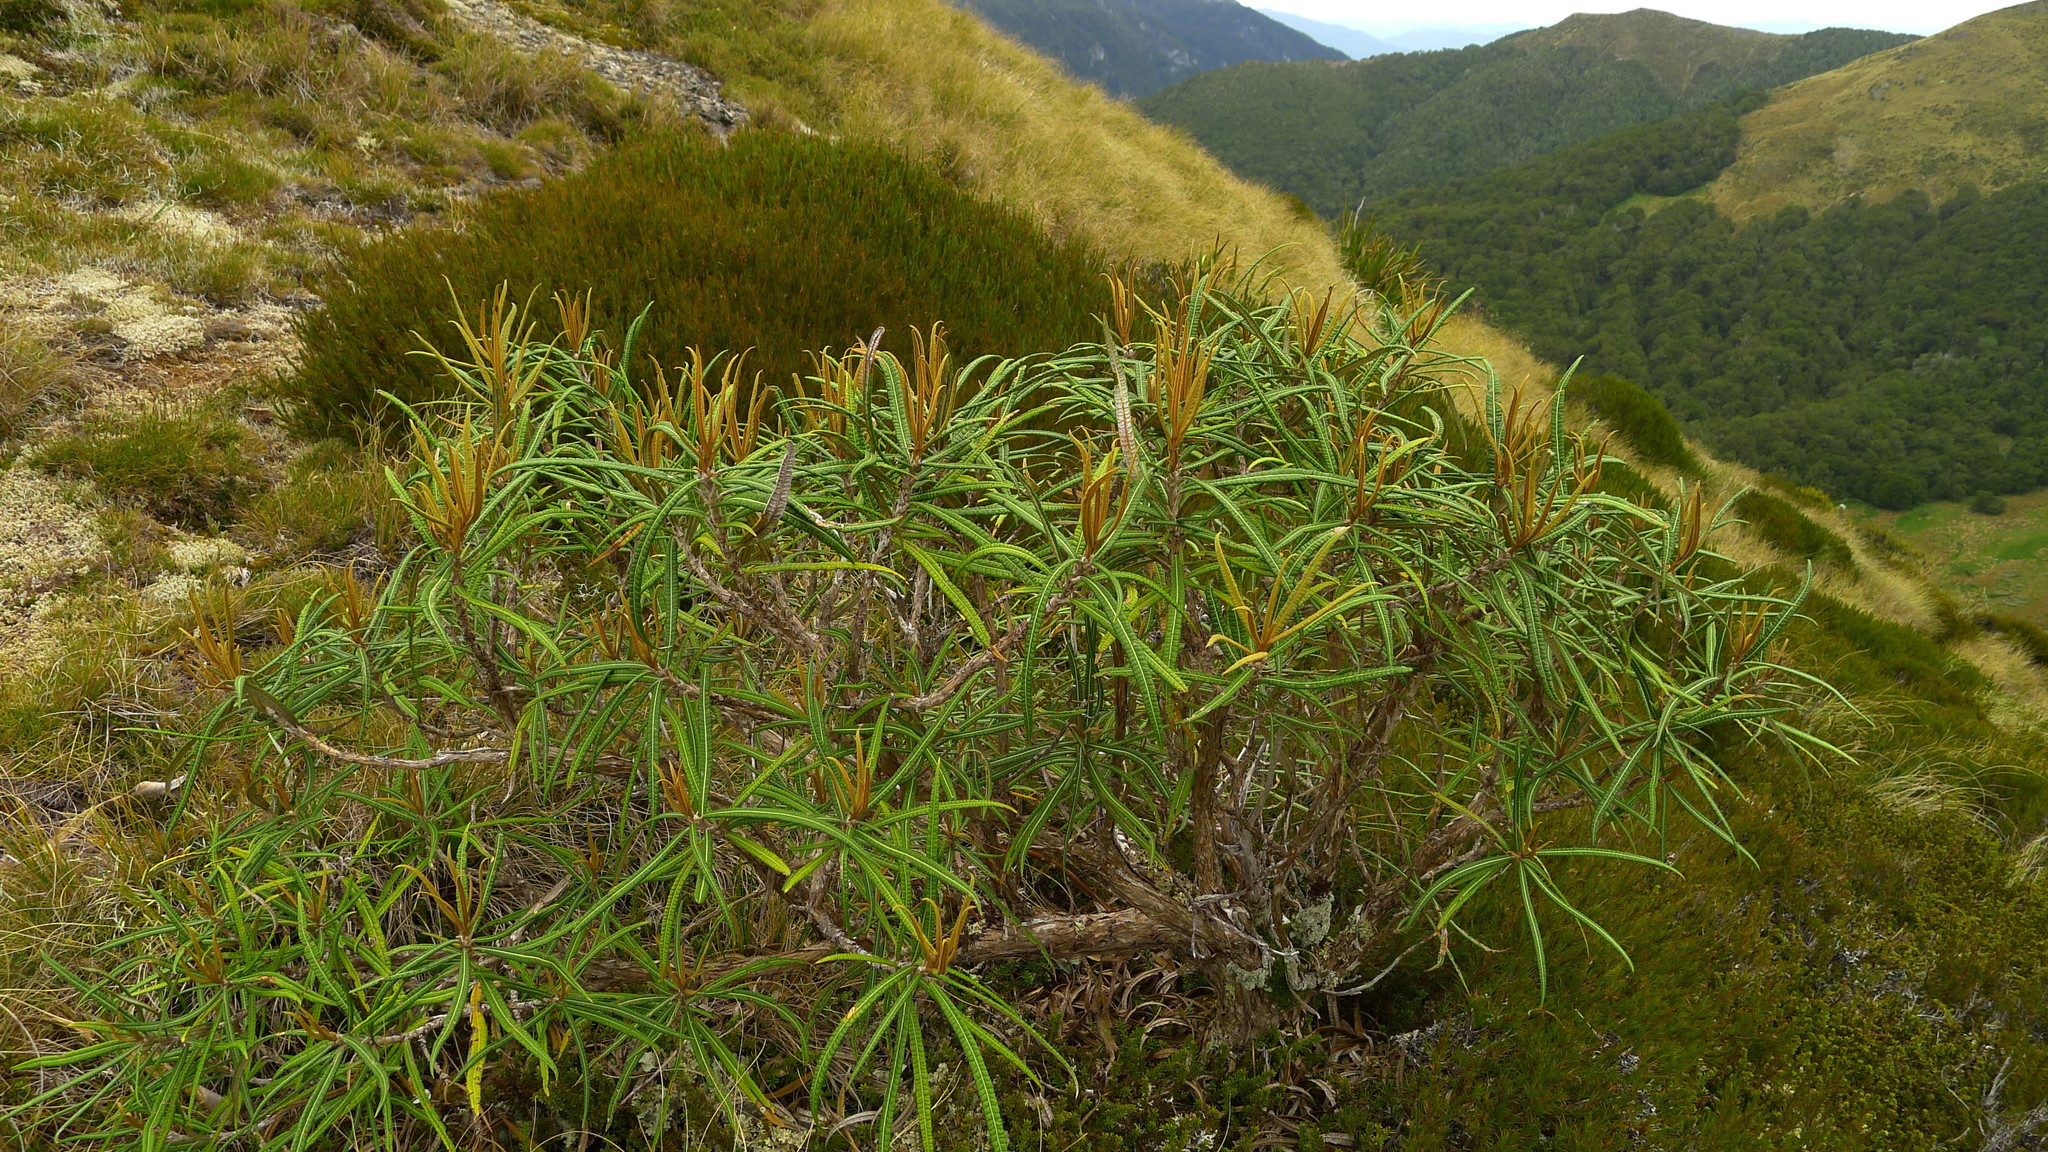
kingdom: Plantae
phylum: Tracheophyta
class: Magnoliopsida
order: Asterales
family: Asteraceae
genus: Olearia
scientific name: Olearia lacunosa
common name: Lancewood tree daisy
